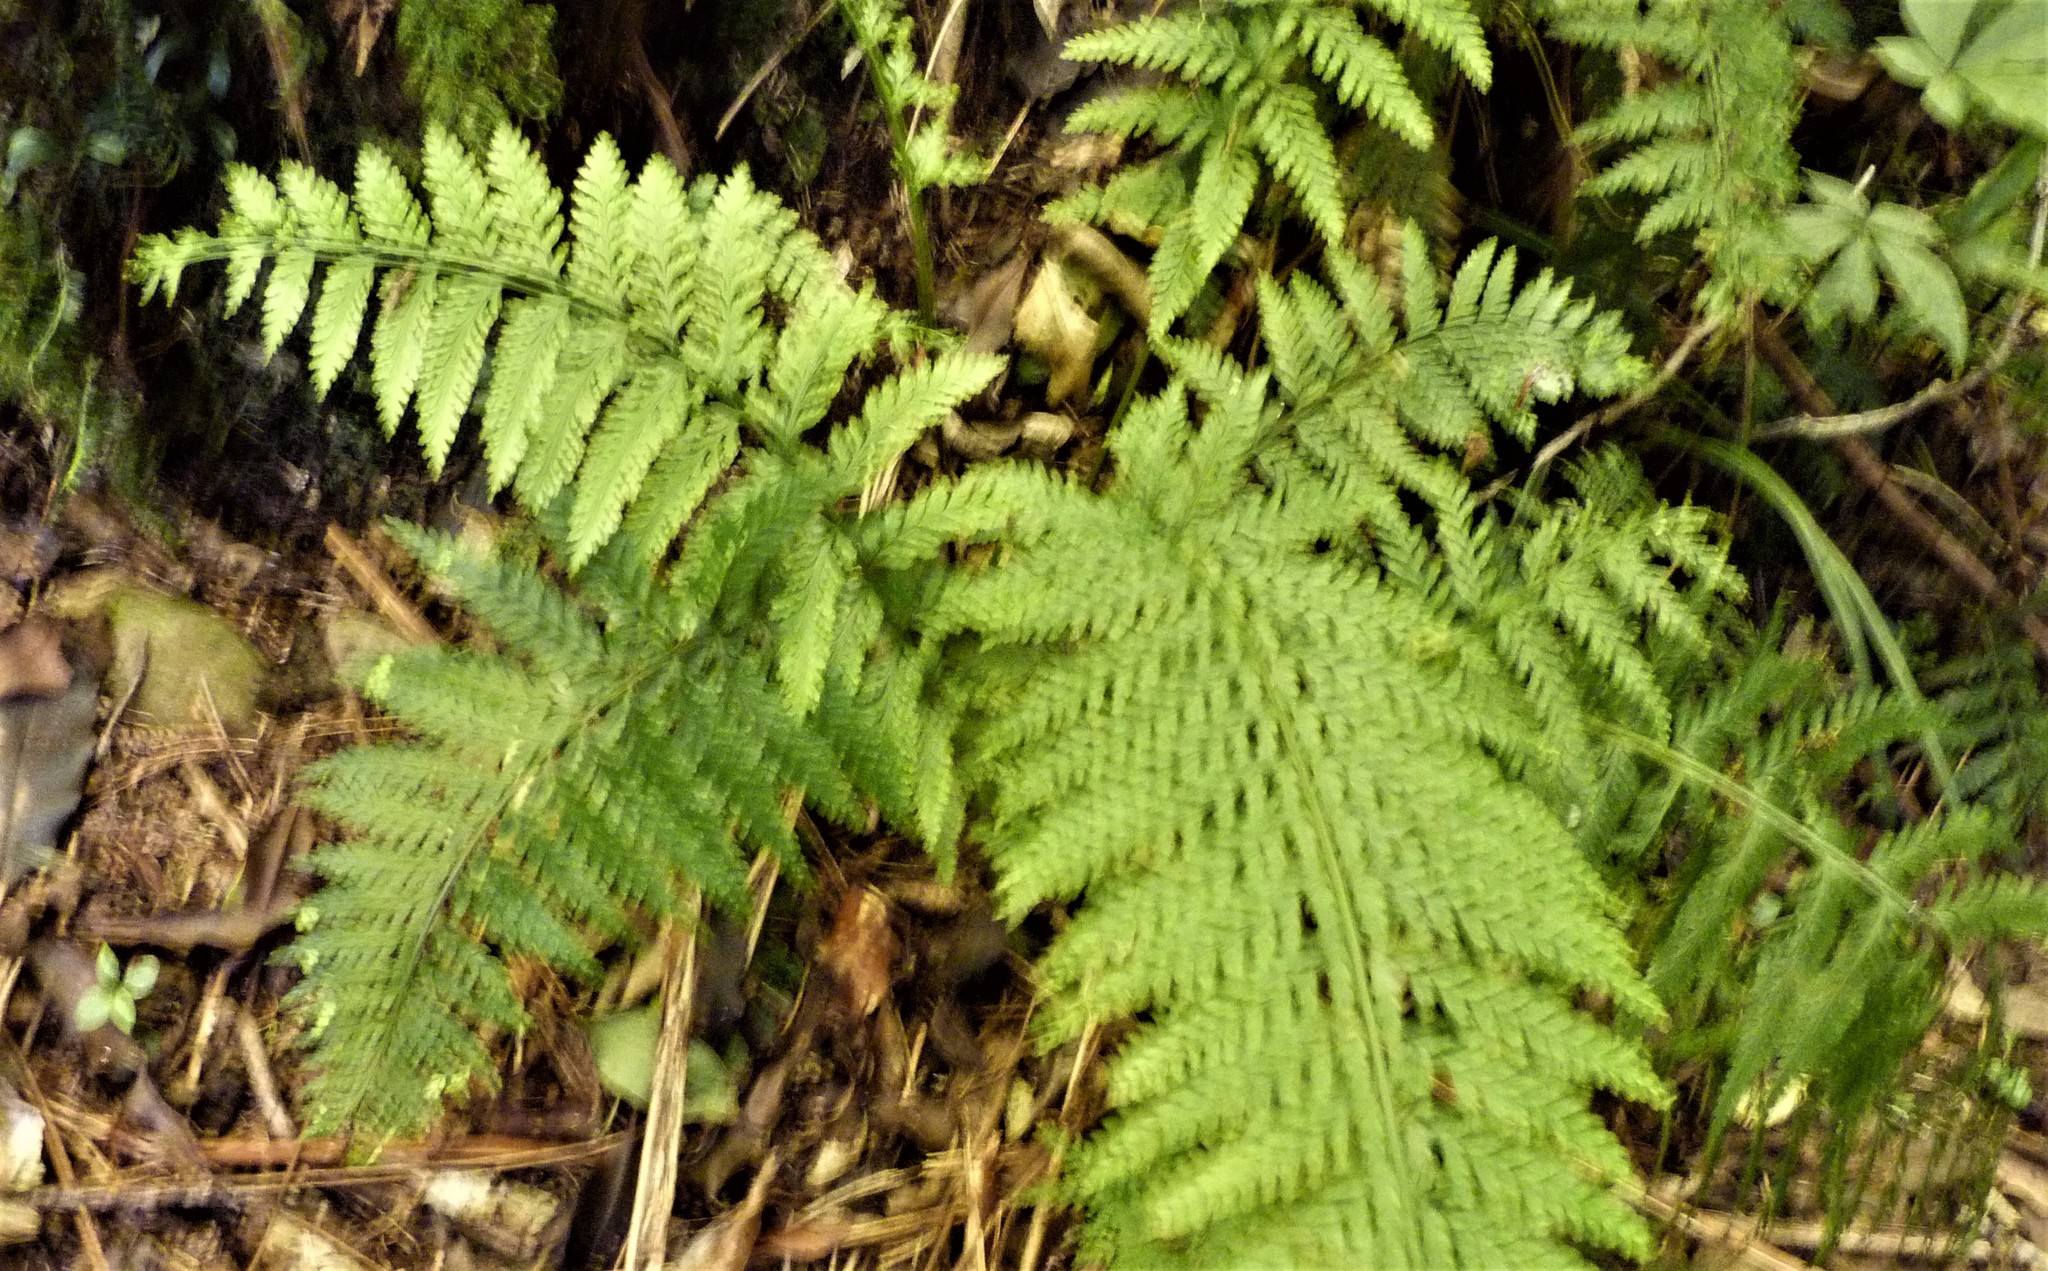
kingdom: Plantae
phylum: Tracheophyta
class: Polypodiopsida
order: Polypodiales
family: Aspleniaceae
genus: Asplenium
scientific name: Asplenium bulbiferum
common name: Mother fern
